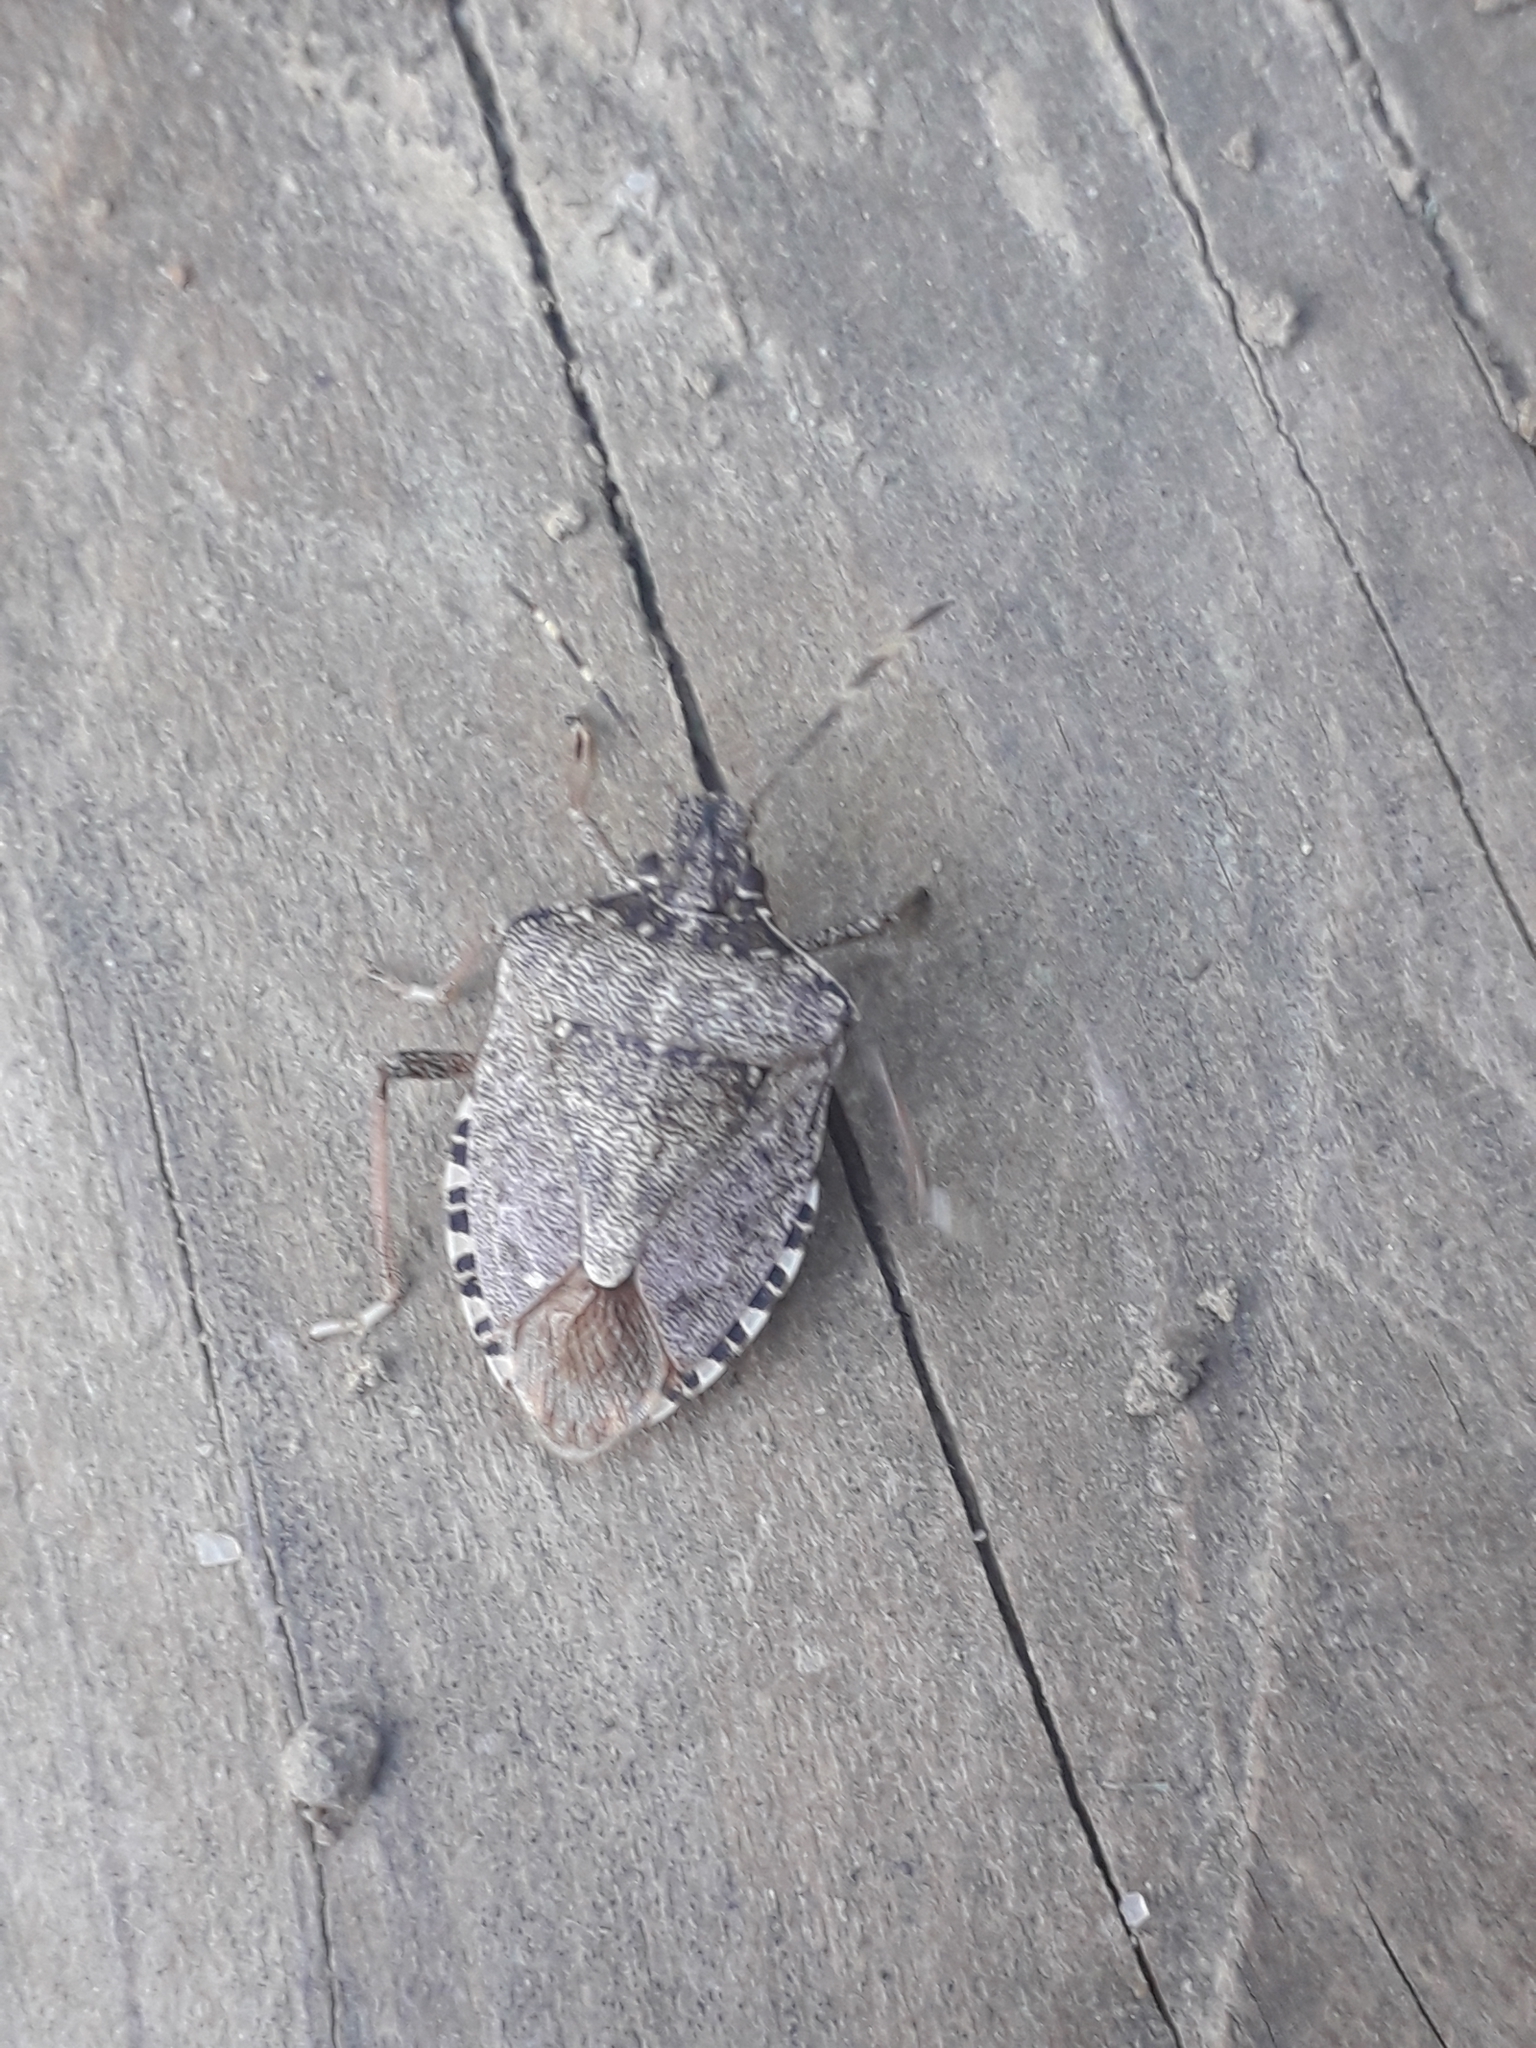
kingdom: Animalia
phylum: Arthropoda
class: Insecta
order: Hemiptera
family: Pentatomidae
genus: Halyomorpha
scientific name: Halyomorpha halys
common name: Brown marmorated stink bug
